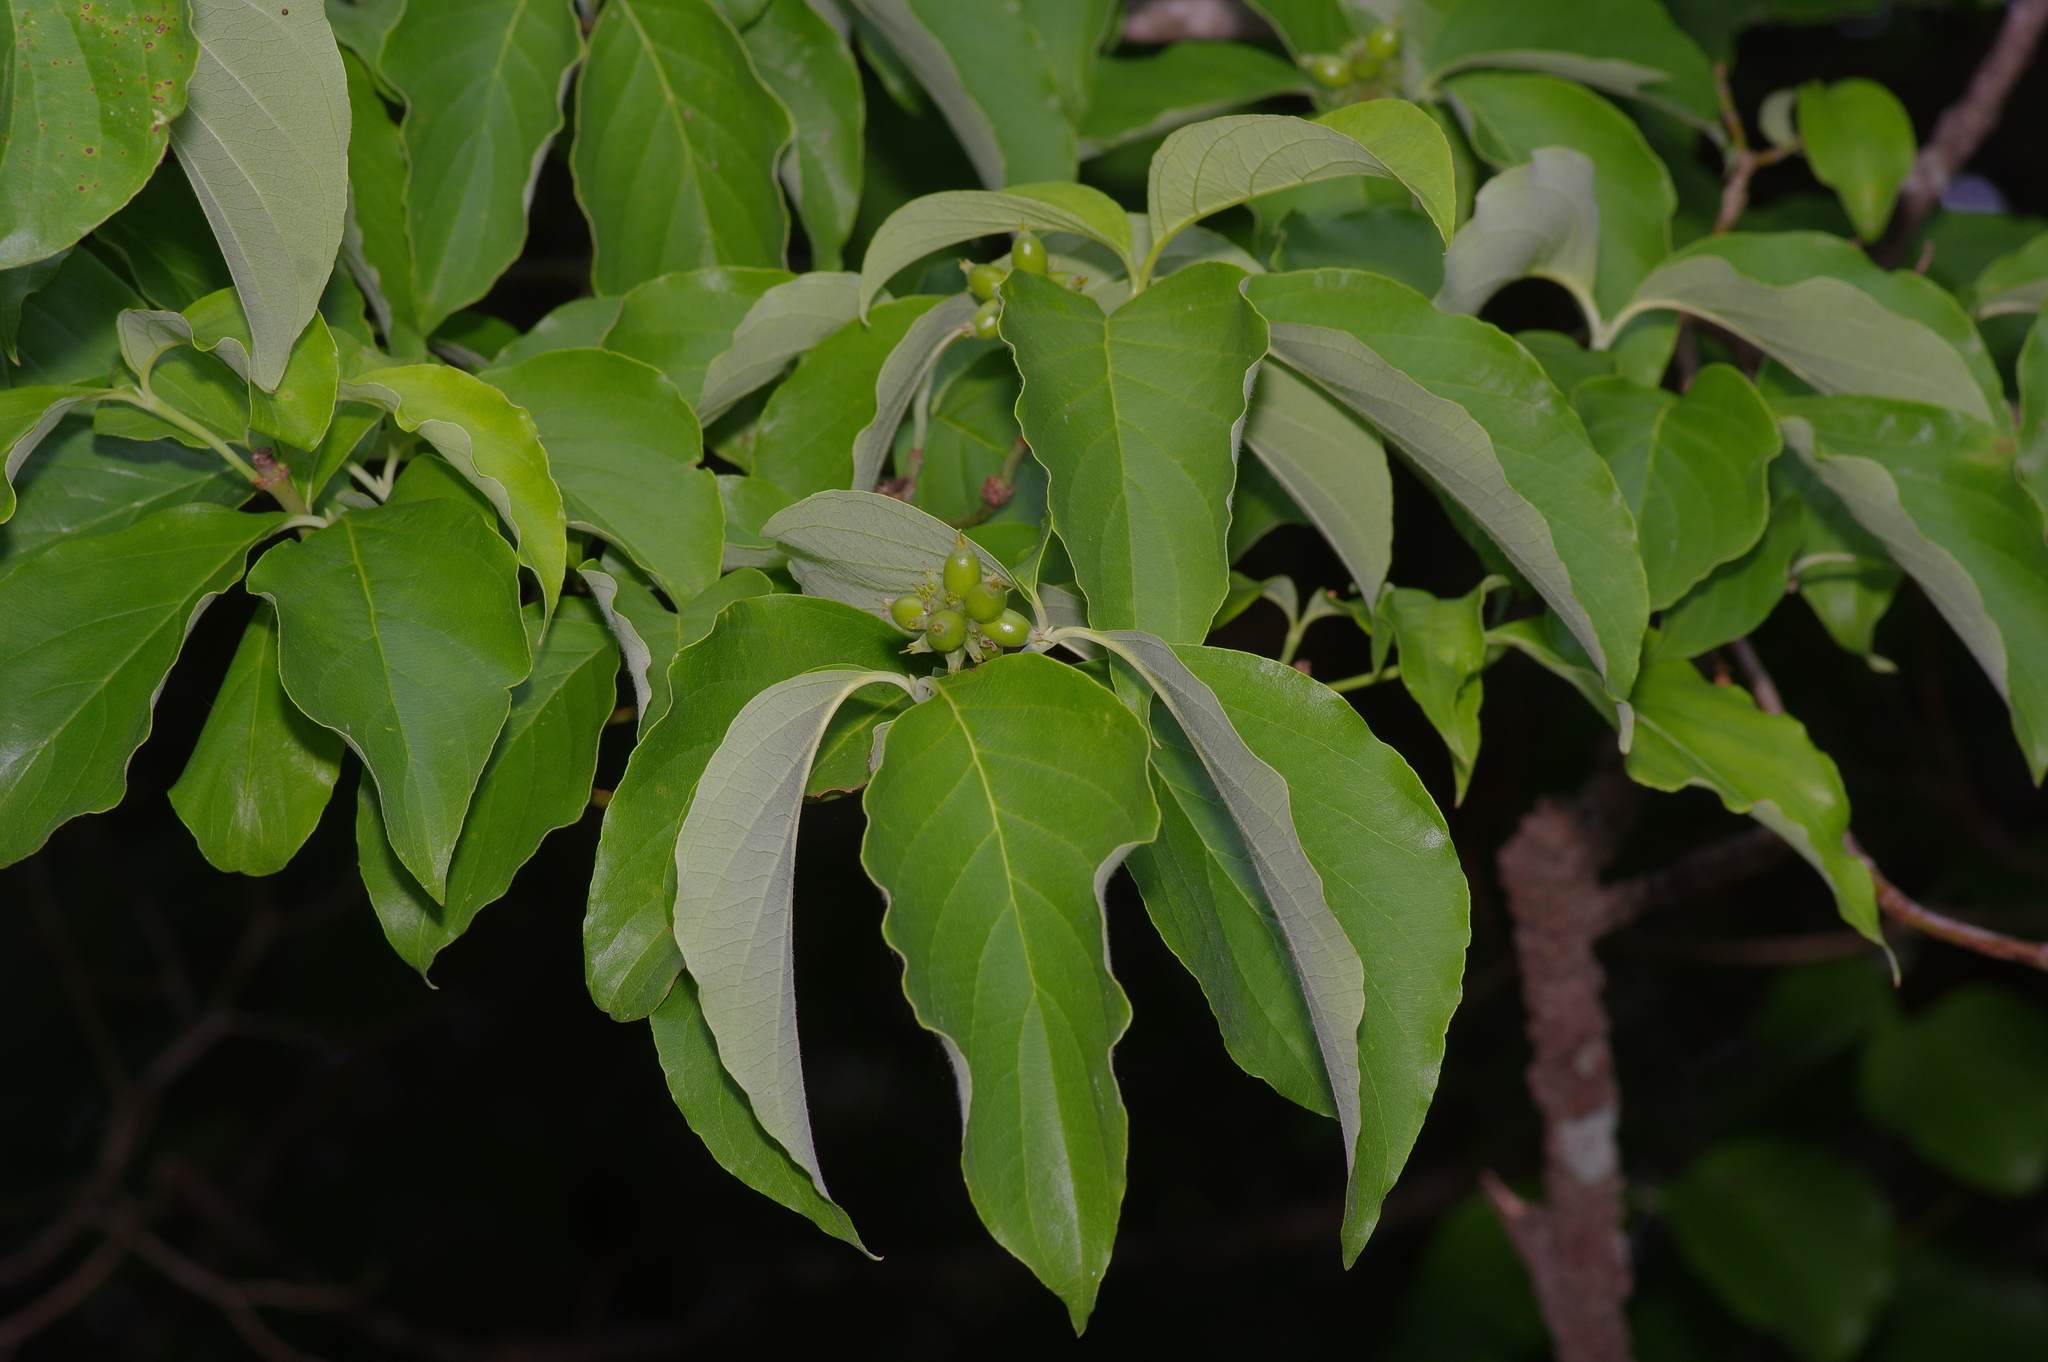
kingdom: Plantae
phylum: Tracheophyta
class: Magnoliopsida
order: Cornales
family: Cornaceae
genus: Cornus
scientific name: Cornus florida
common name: Flowering dogwood
